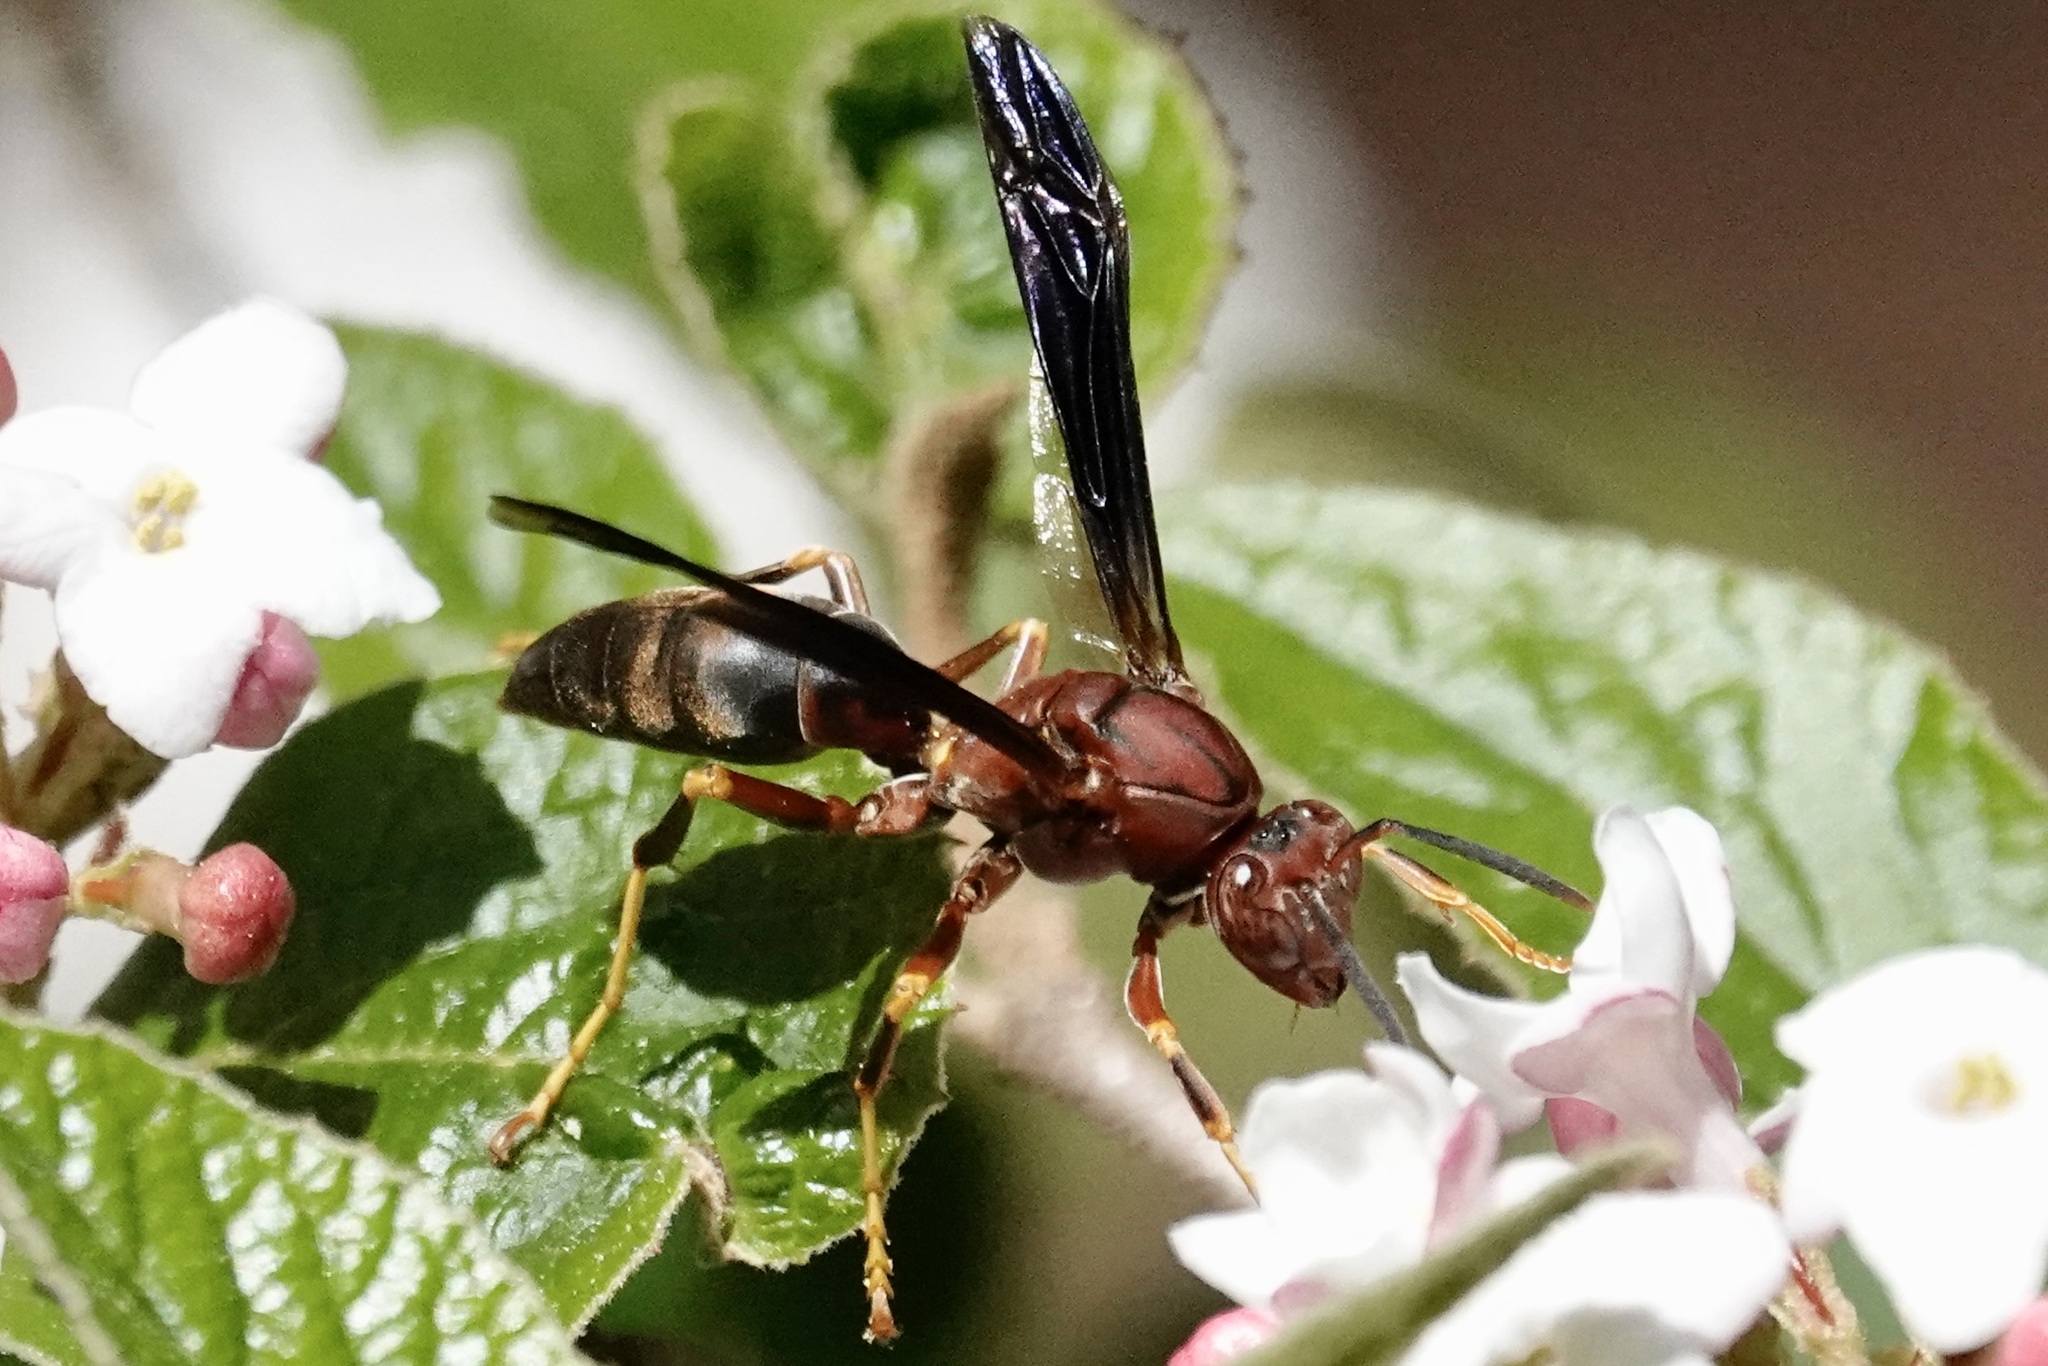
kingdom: Animalia
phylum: Arthropoda
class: Insecta
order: Hymenoptera
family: Eumenidae
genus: Polistes
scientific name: Polistes metricus
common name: Metric paper wasp
